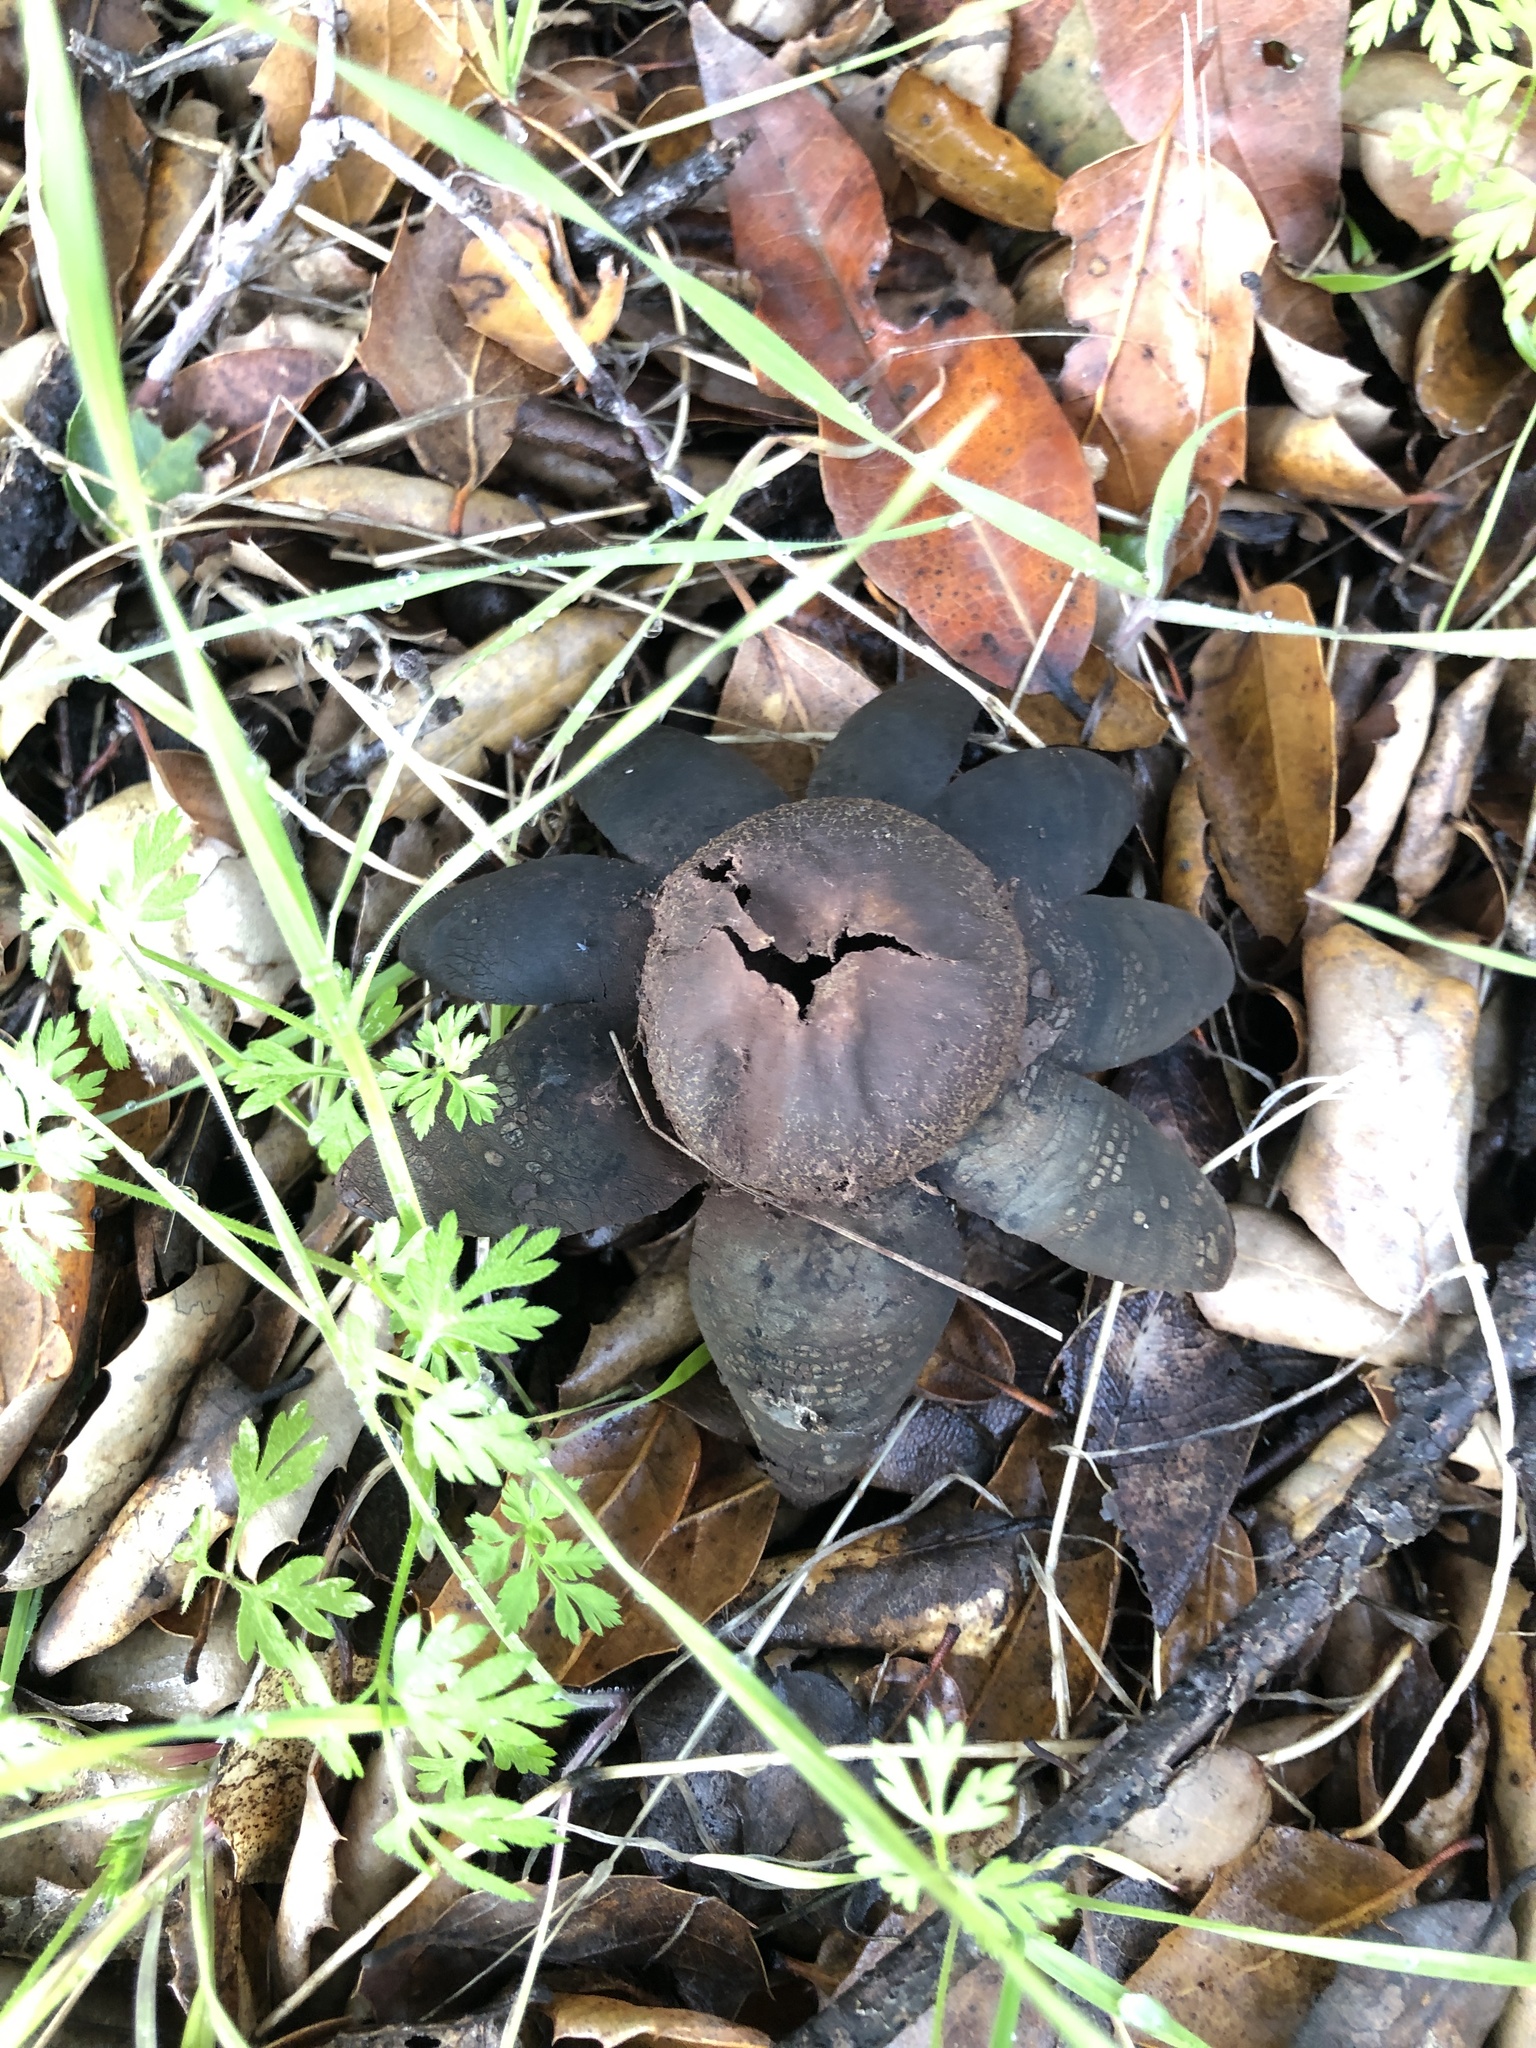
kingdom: Fungi
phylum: Basidiomycota
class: Agaricomycetes
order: Boletales
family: Diplocystidiaceae
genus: Astraeus
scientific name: Astraeus pteridis
